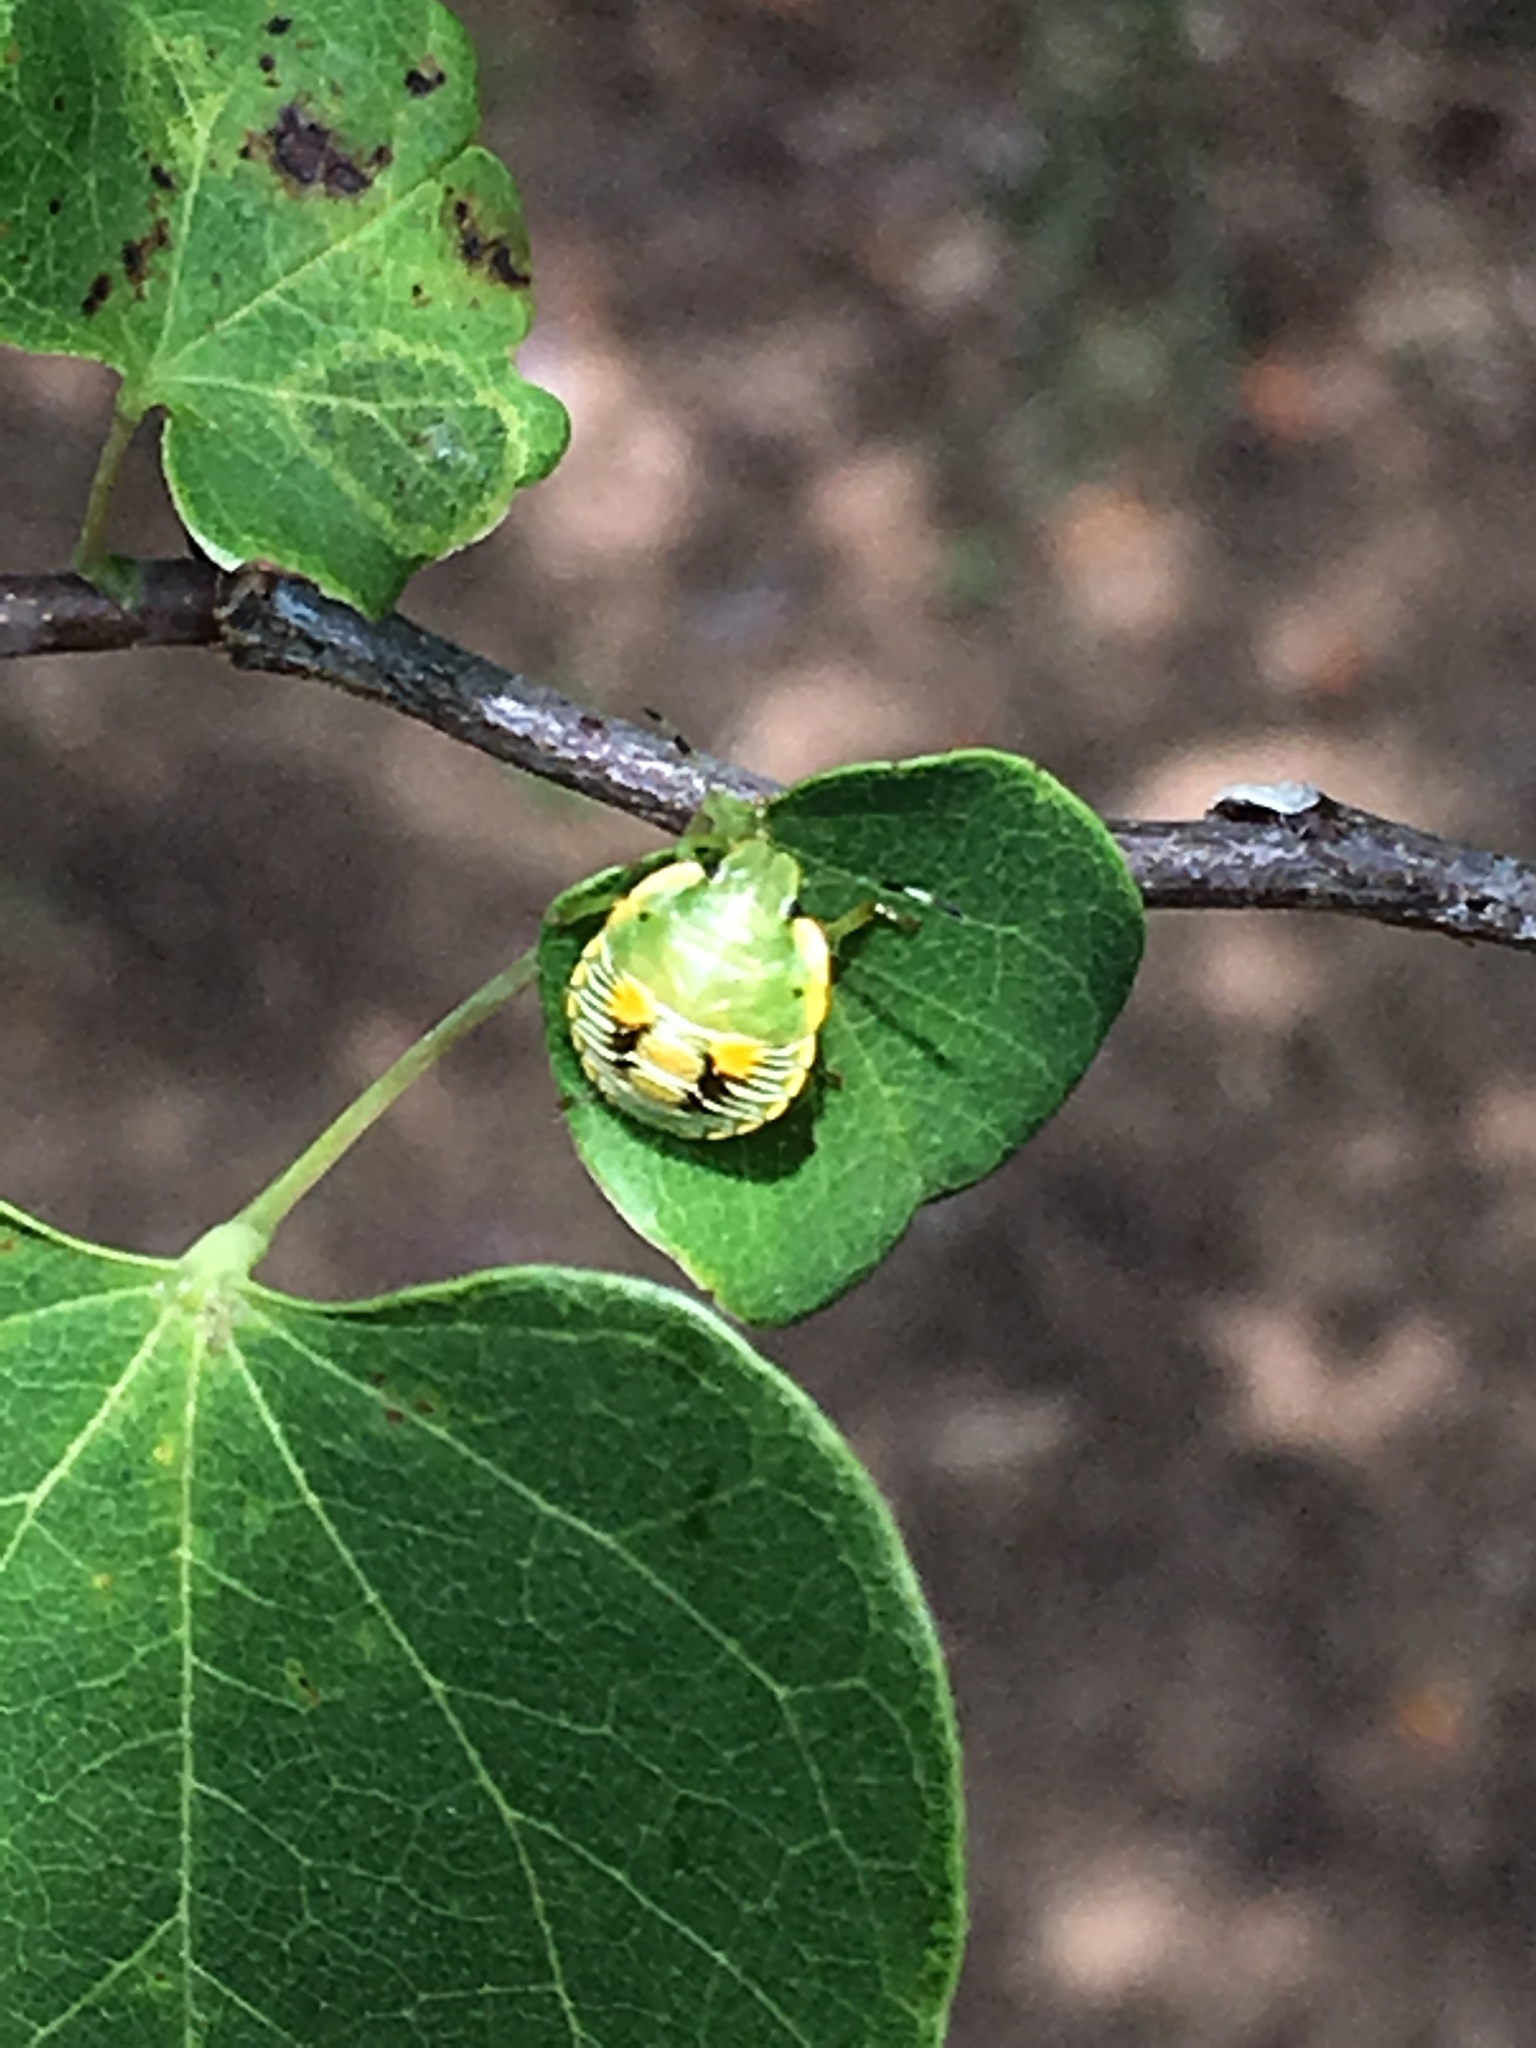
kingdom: Animalia
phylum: Arthropoda
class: Insecta
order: Hemiptera
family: Pentatomidae
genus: Chinavia
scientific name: Chinavia hilaris
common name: Green stink bug
